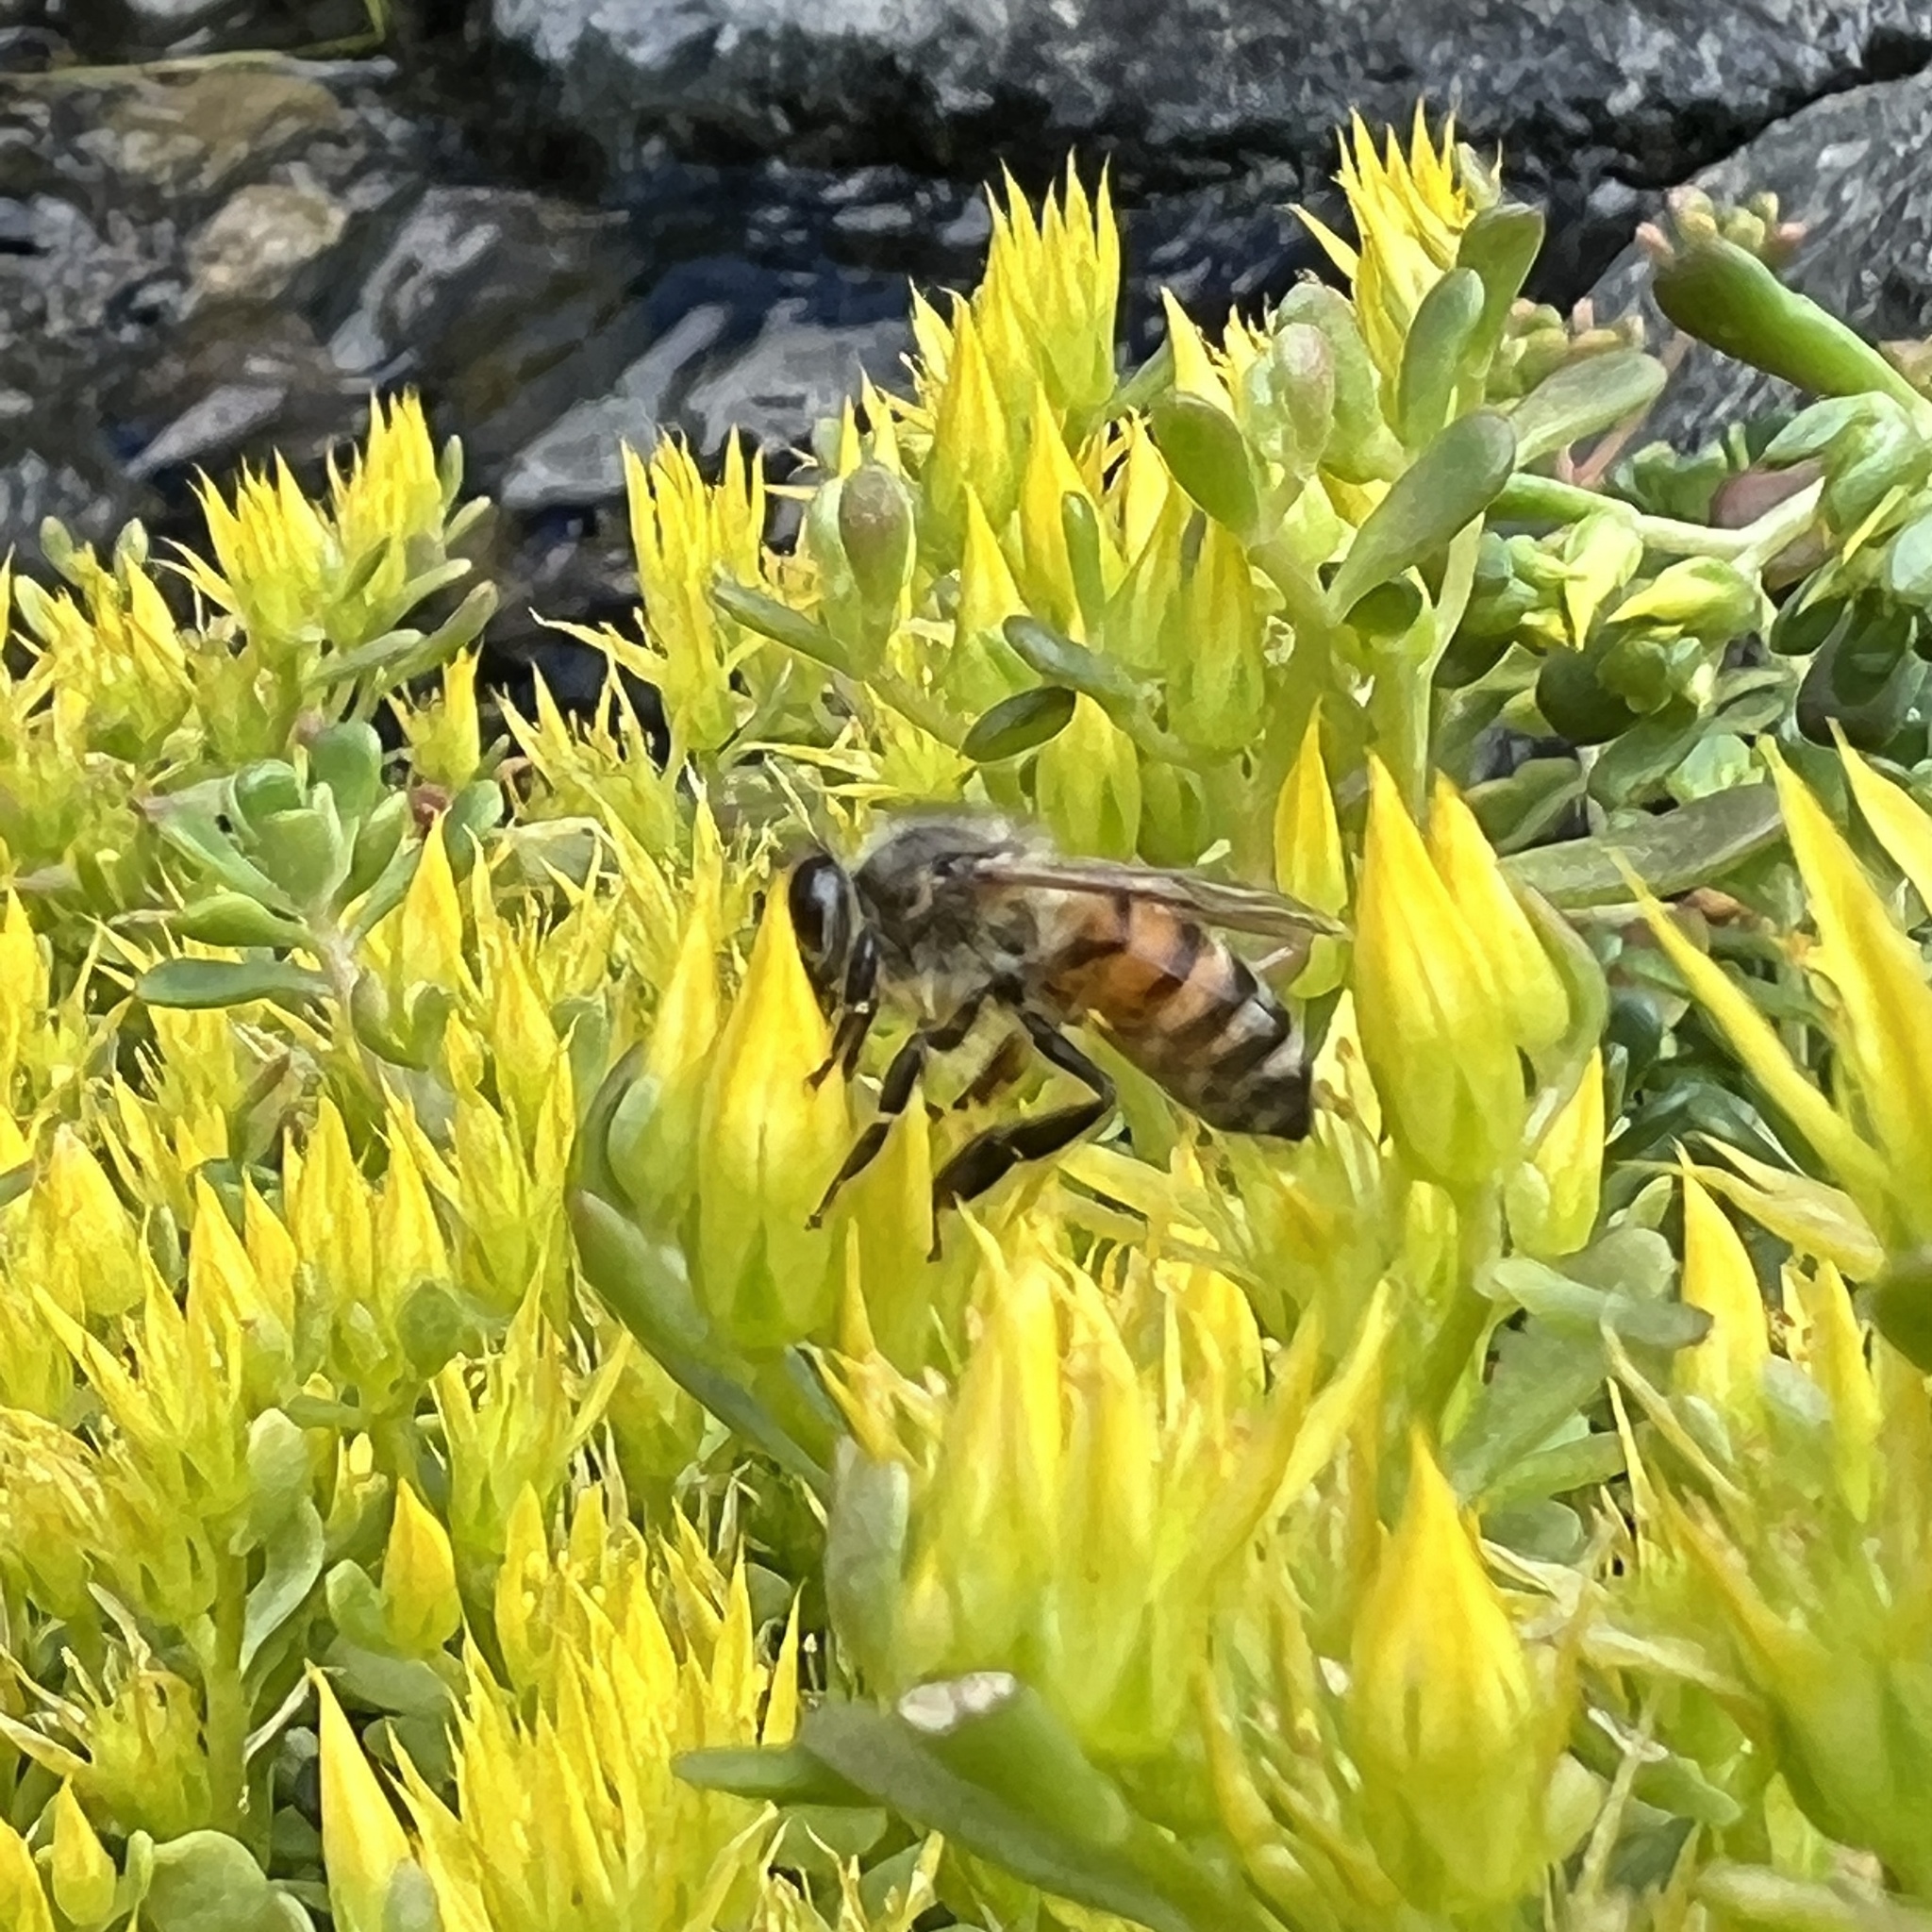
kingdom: Animalia
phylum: Arthropoda
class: Insecta
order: Hymenoptera
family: Apidae
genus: Apis
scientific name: Apis mellifera
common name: Honey bee
